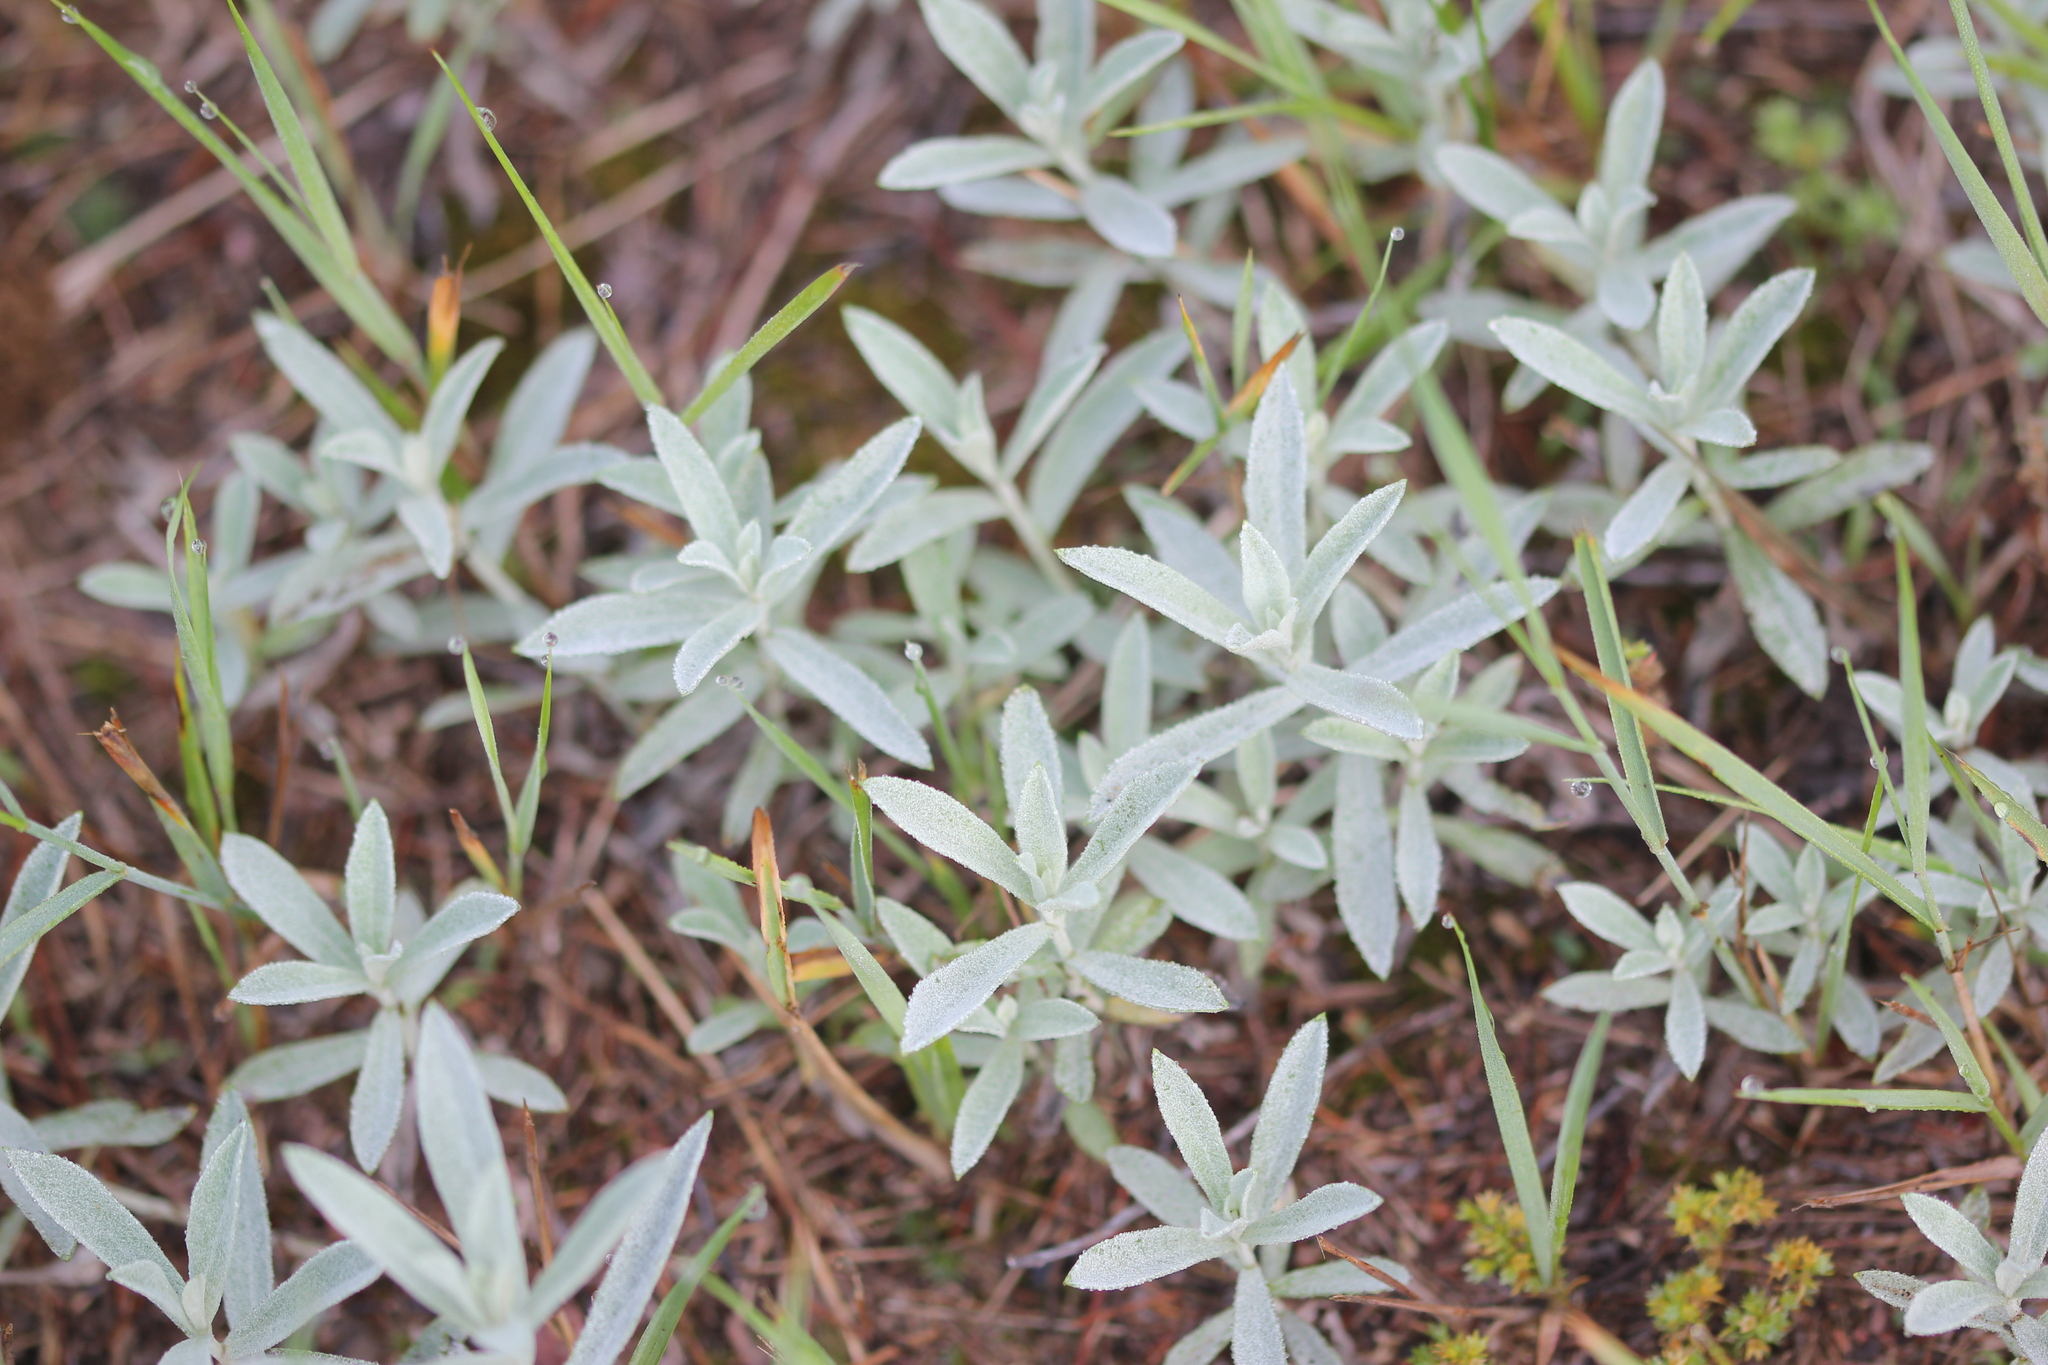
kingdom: Plantae
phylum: Tracheophyta
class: Magnoliopsida
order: Asterales
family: Asteraceae
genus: Artemisia
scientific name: Artemisia ludoviciana
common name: Western mugwort
